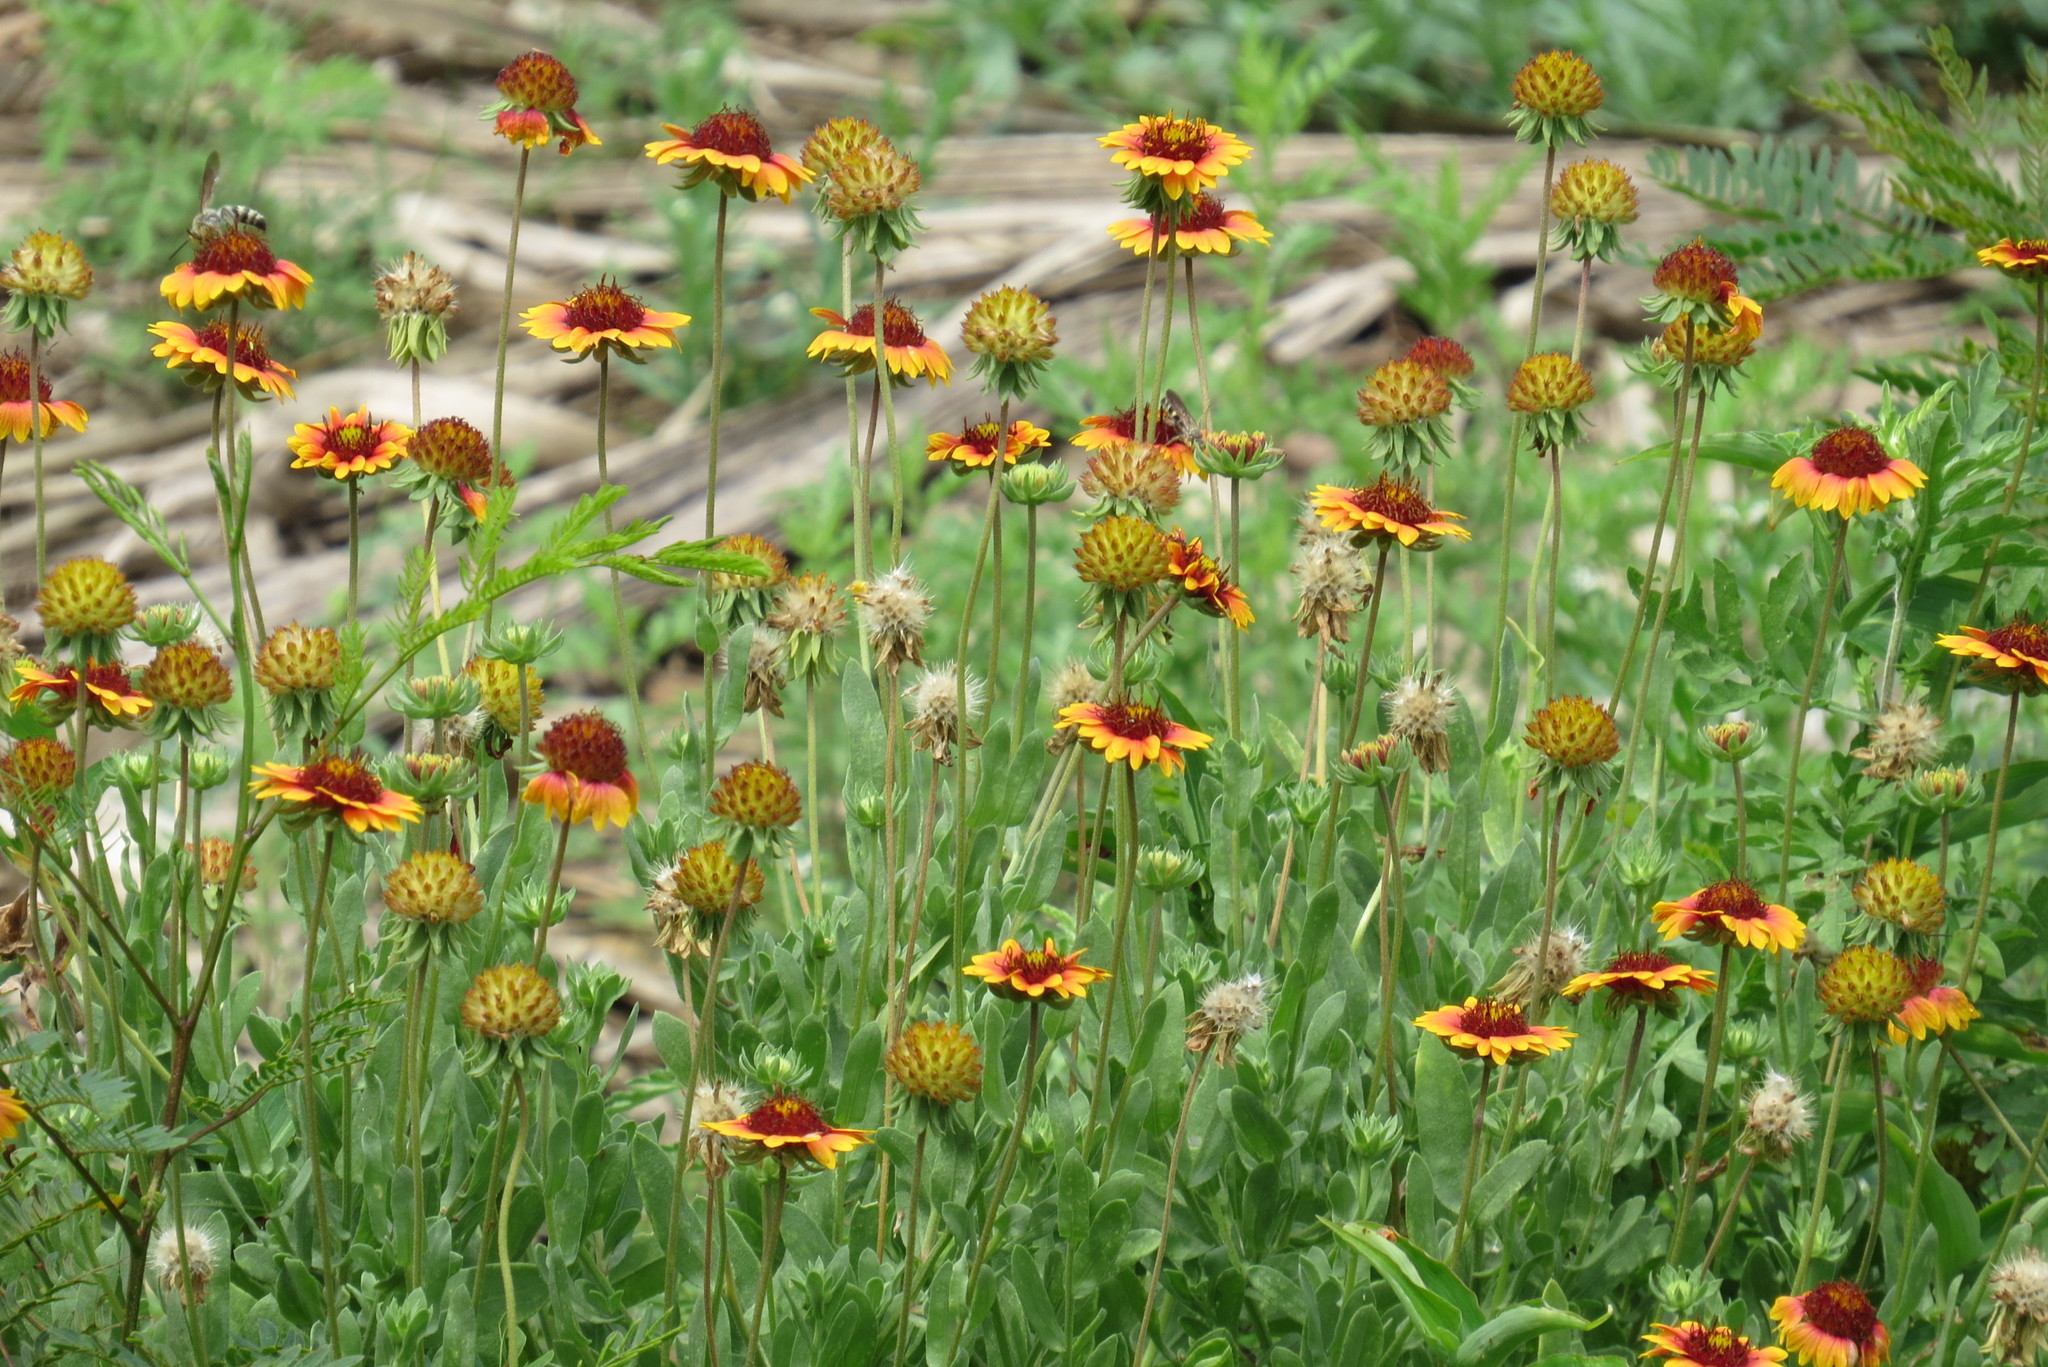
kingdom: Plantae
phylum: Tracheophyta
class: Magnoliopsida
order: Asterales
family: Asteraceae
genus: Gaillardia
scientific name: Gaillardia pulchella
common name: Firewheel
